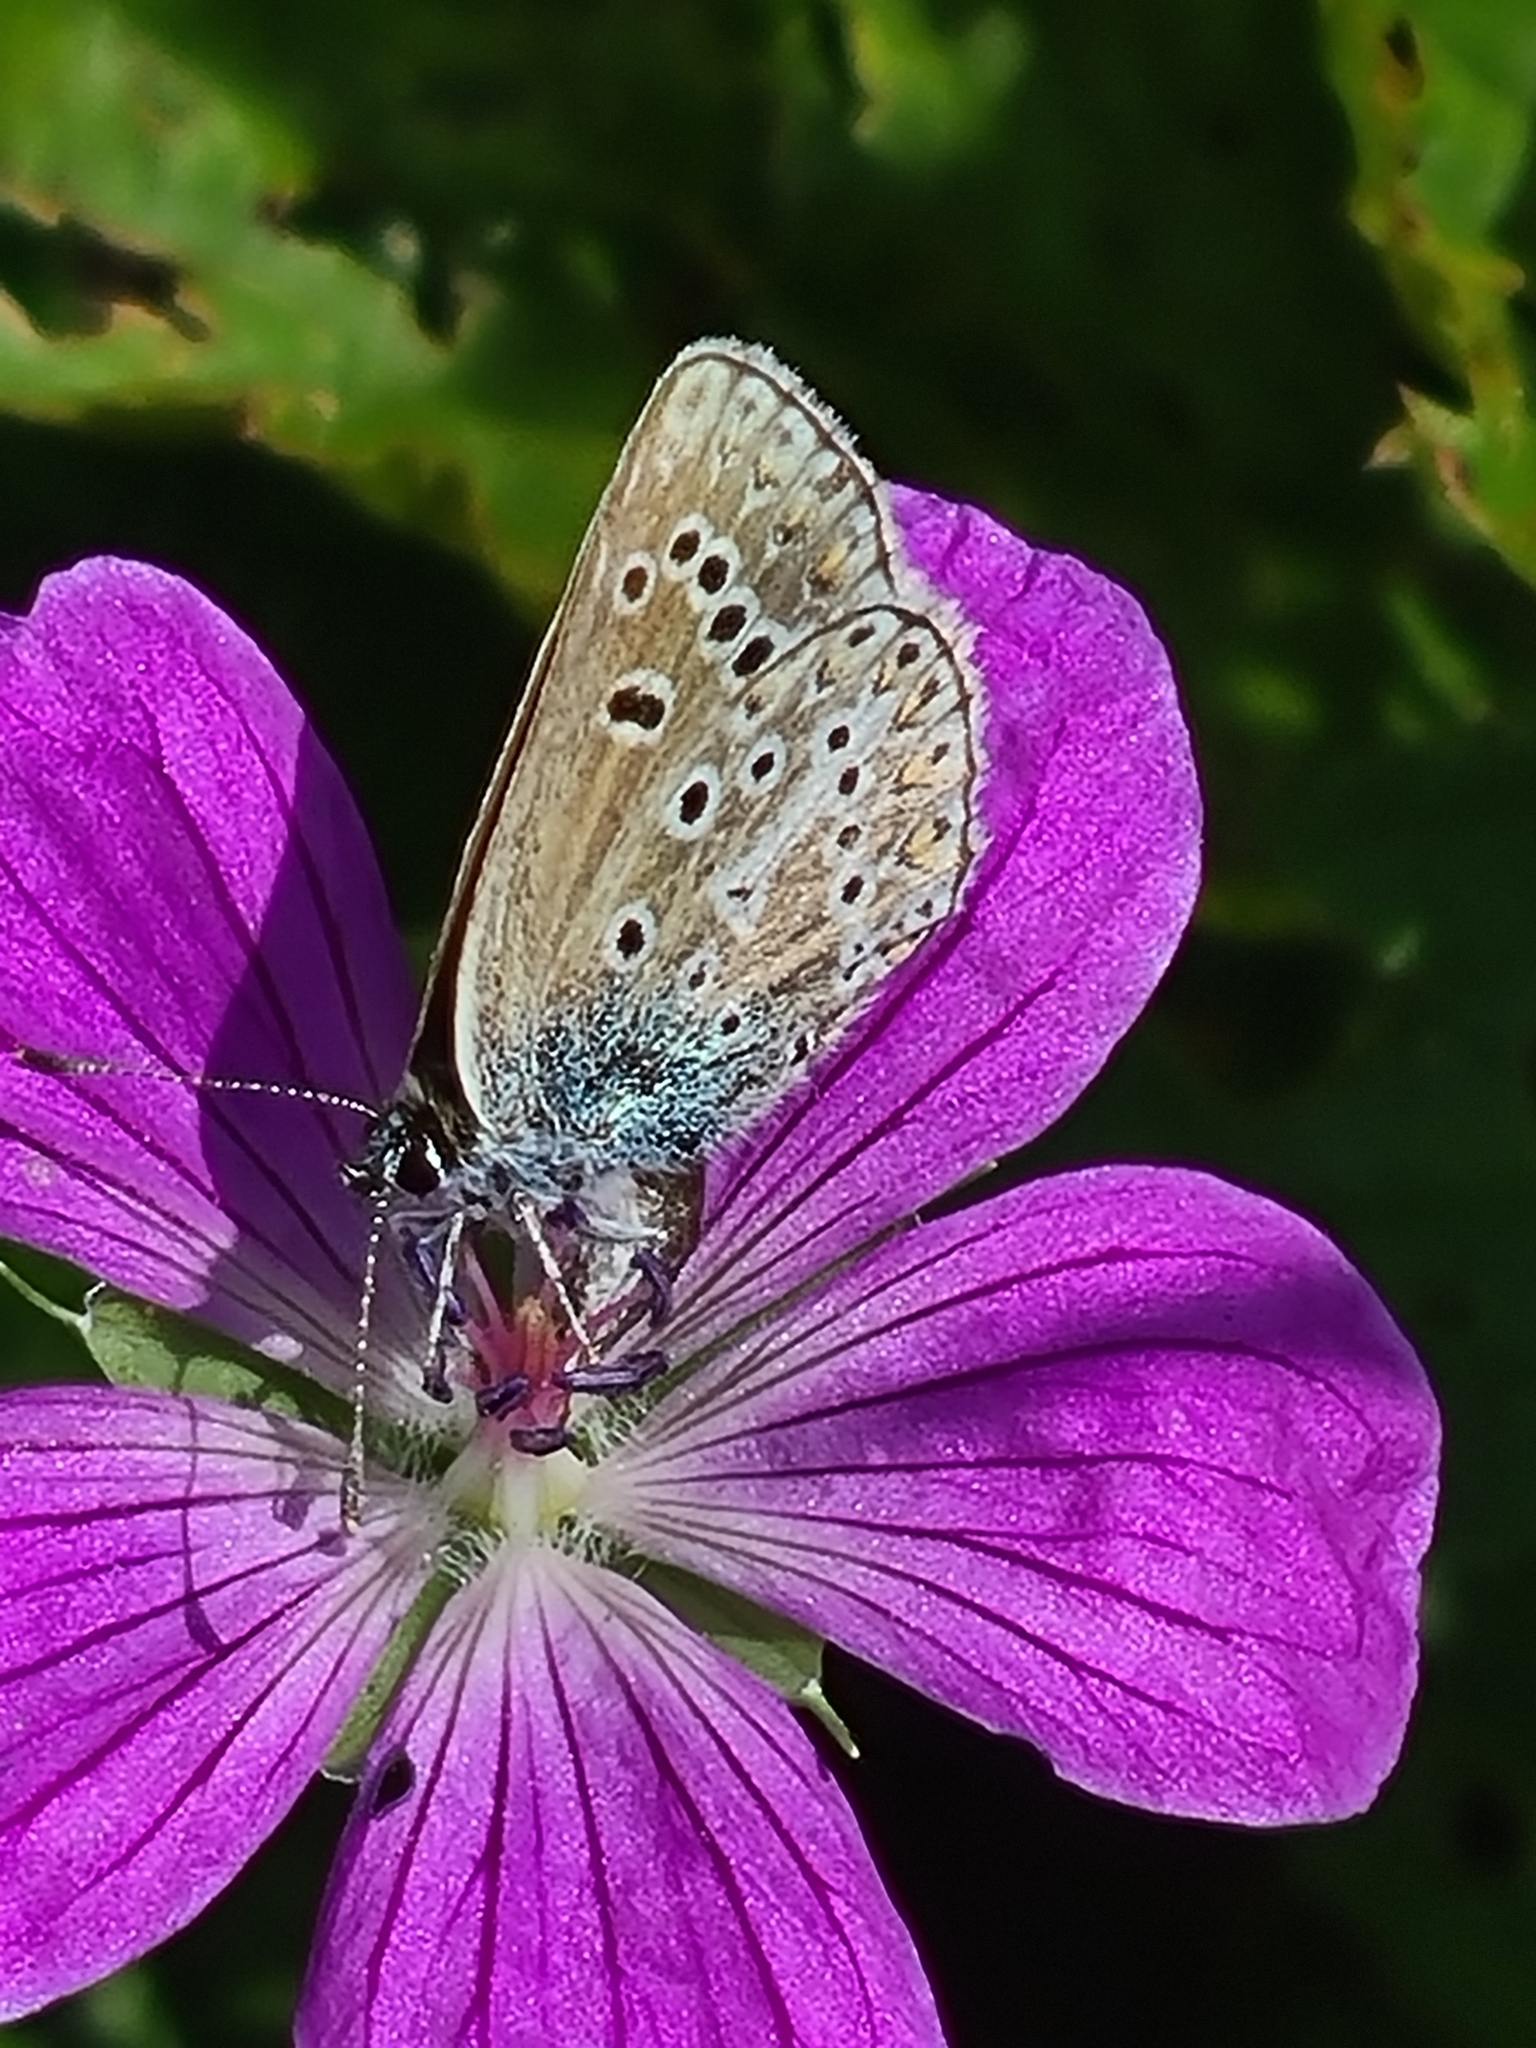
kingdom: Animalia
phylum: Arthropoda
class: Insecta
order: Lepidoptera
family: Lycaenidae
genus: Eumedonia
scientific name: Eumedonia eumedon
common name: Geranium argus
